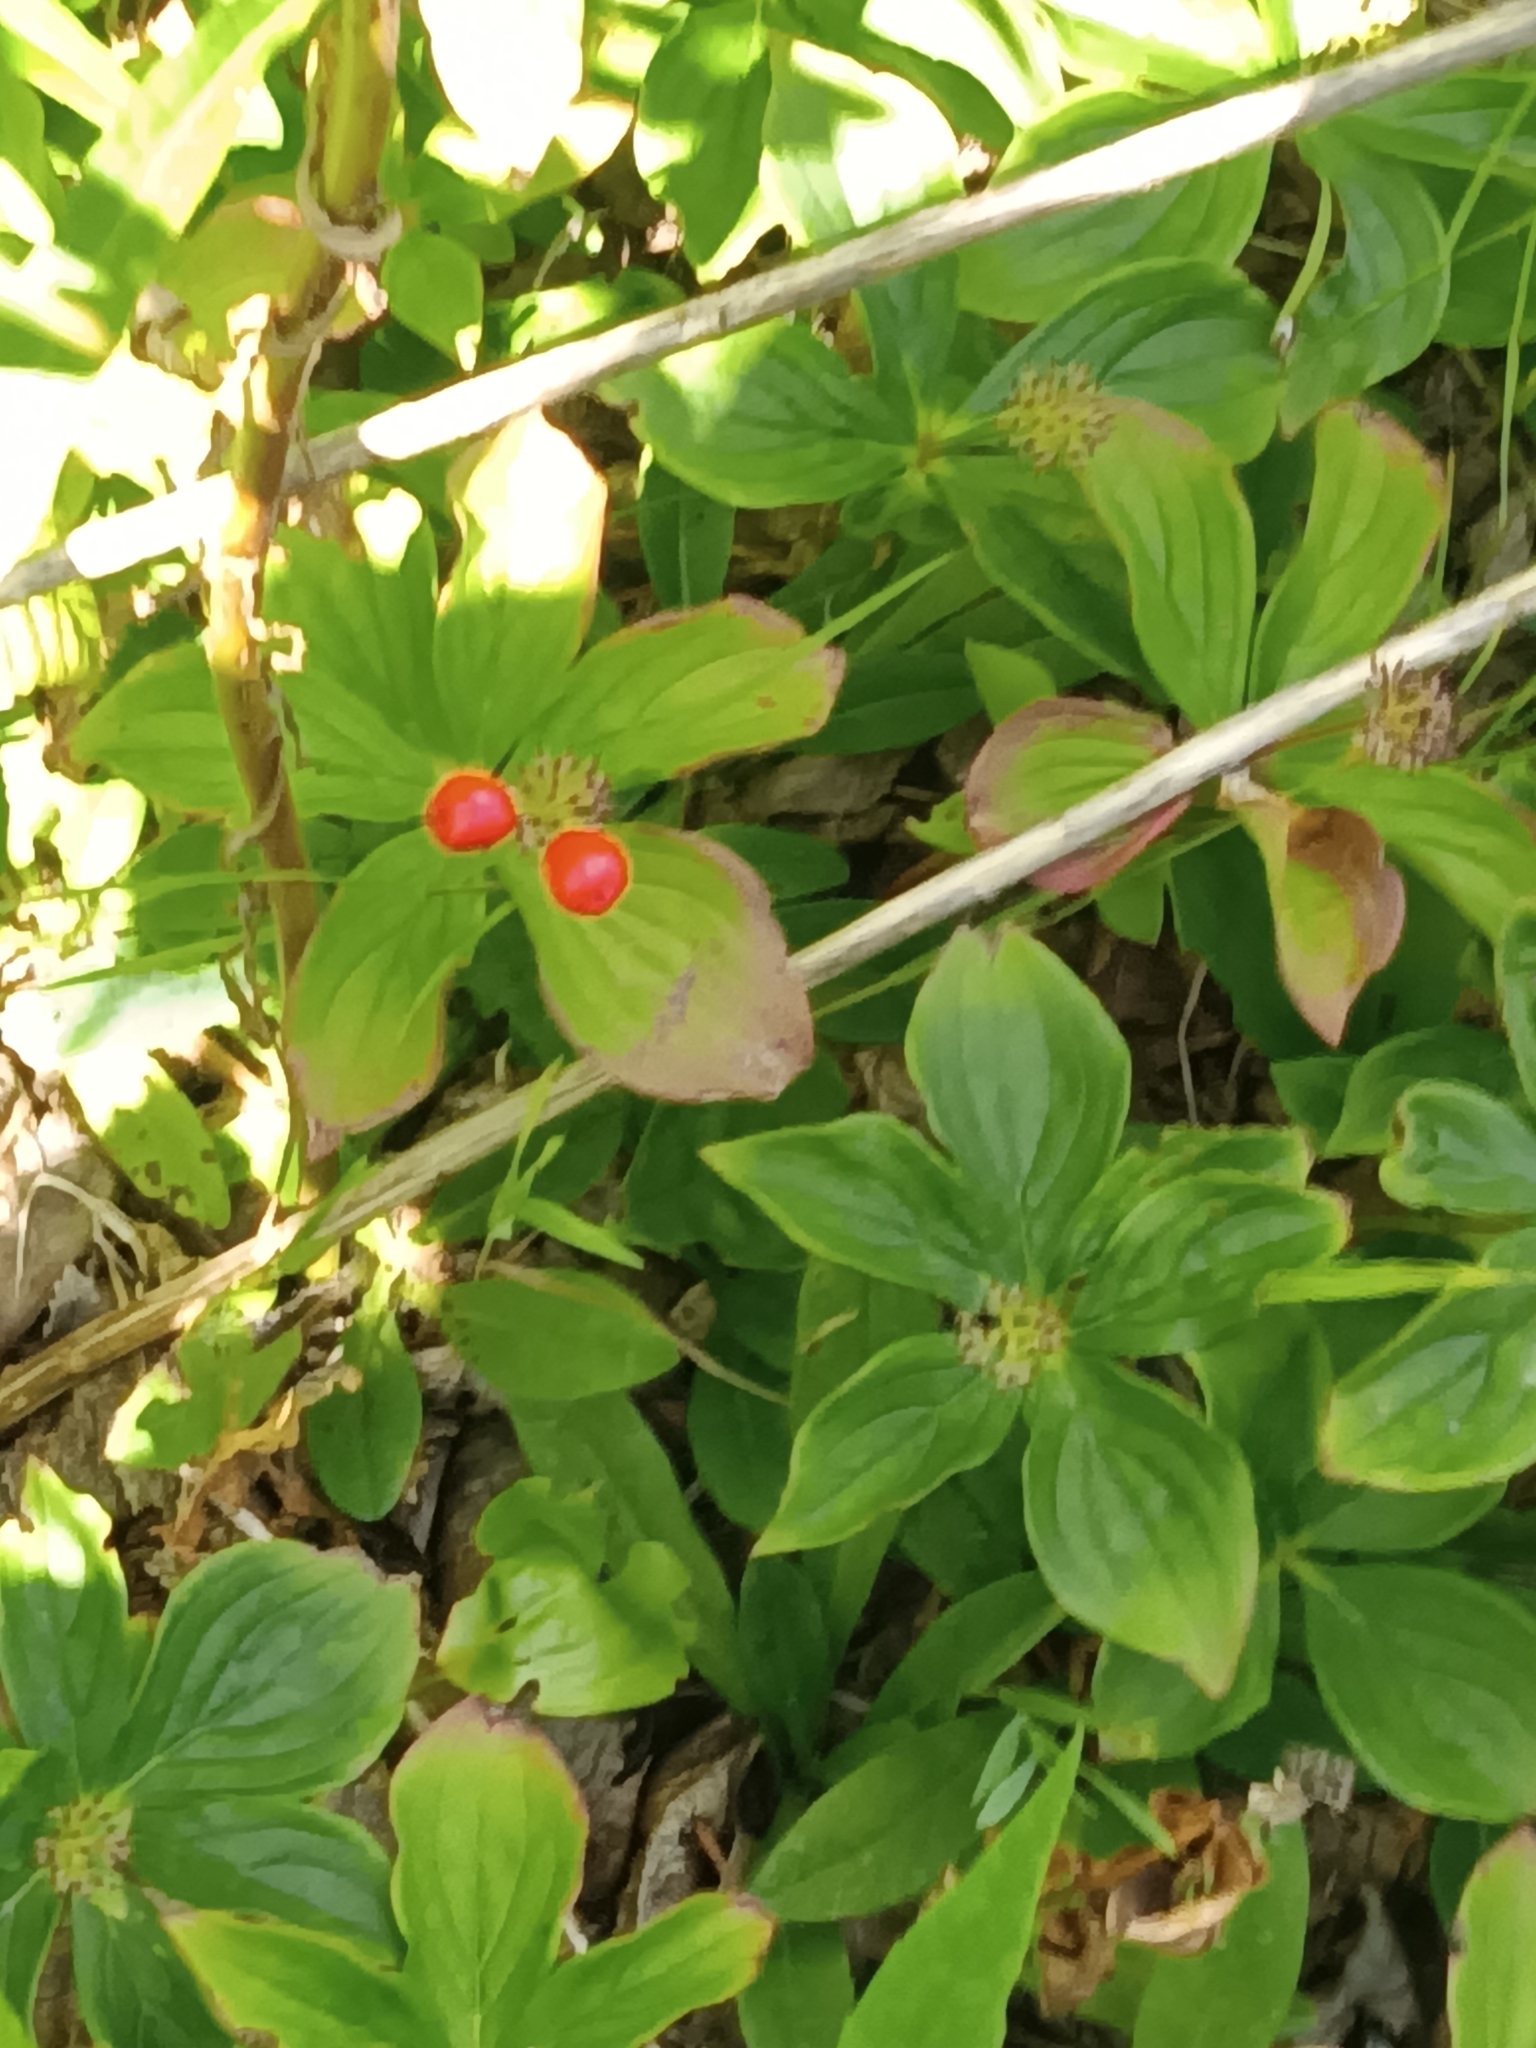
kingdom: Plantae
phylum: Tracheophyta
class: Magnoliopsida
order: Cornales
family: Cornaceae
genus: Cornus
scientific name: Cornus canadensis
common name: Creeping dogwood
